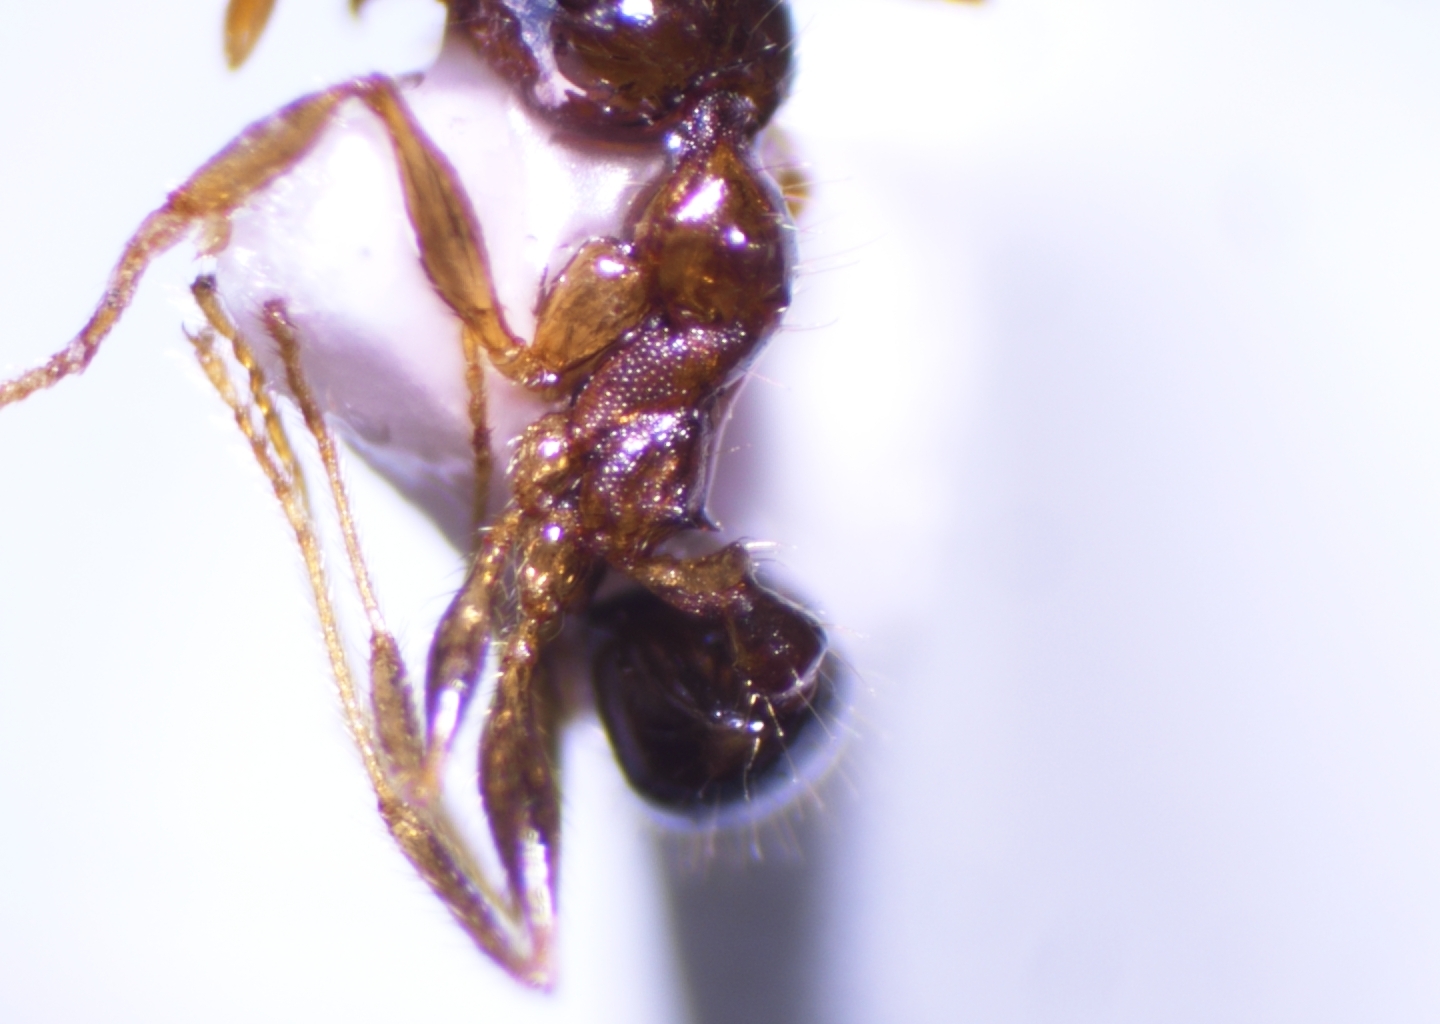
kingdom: Animalia
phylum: Arthropoda
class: Insecta
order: Hymenoptera
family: Formicidae
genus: Pheidole
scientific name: Pheidole megacephala
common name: Bigheaded ant
